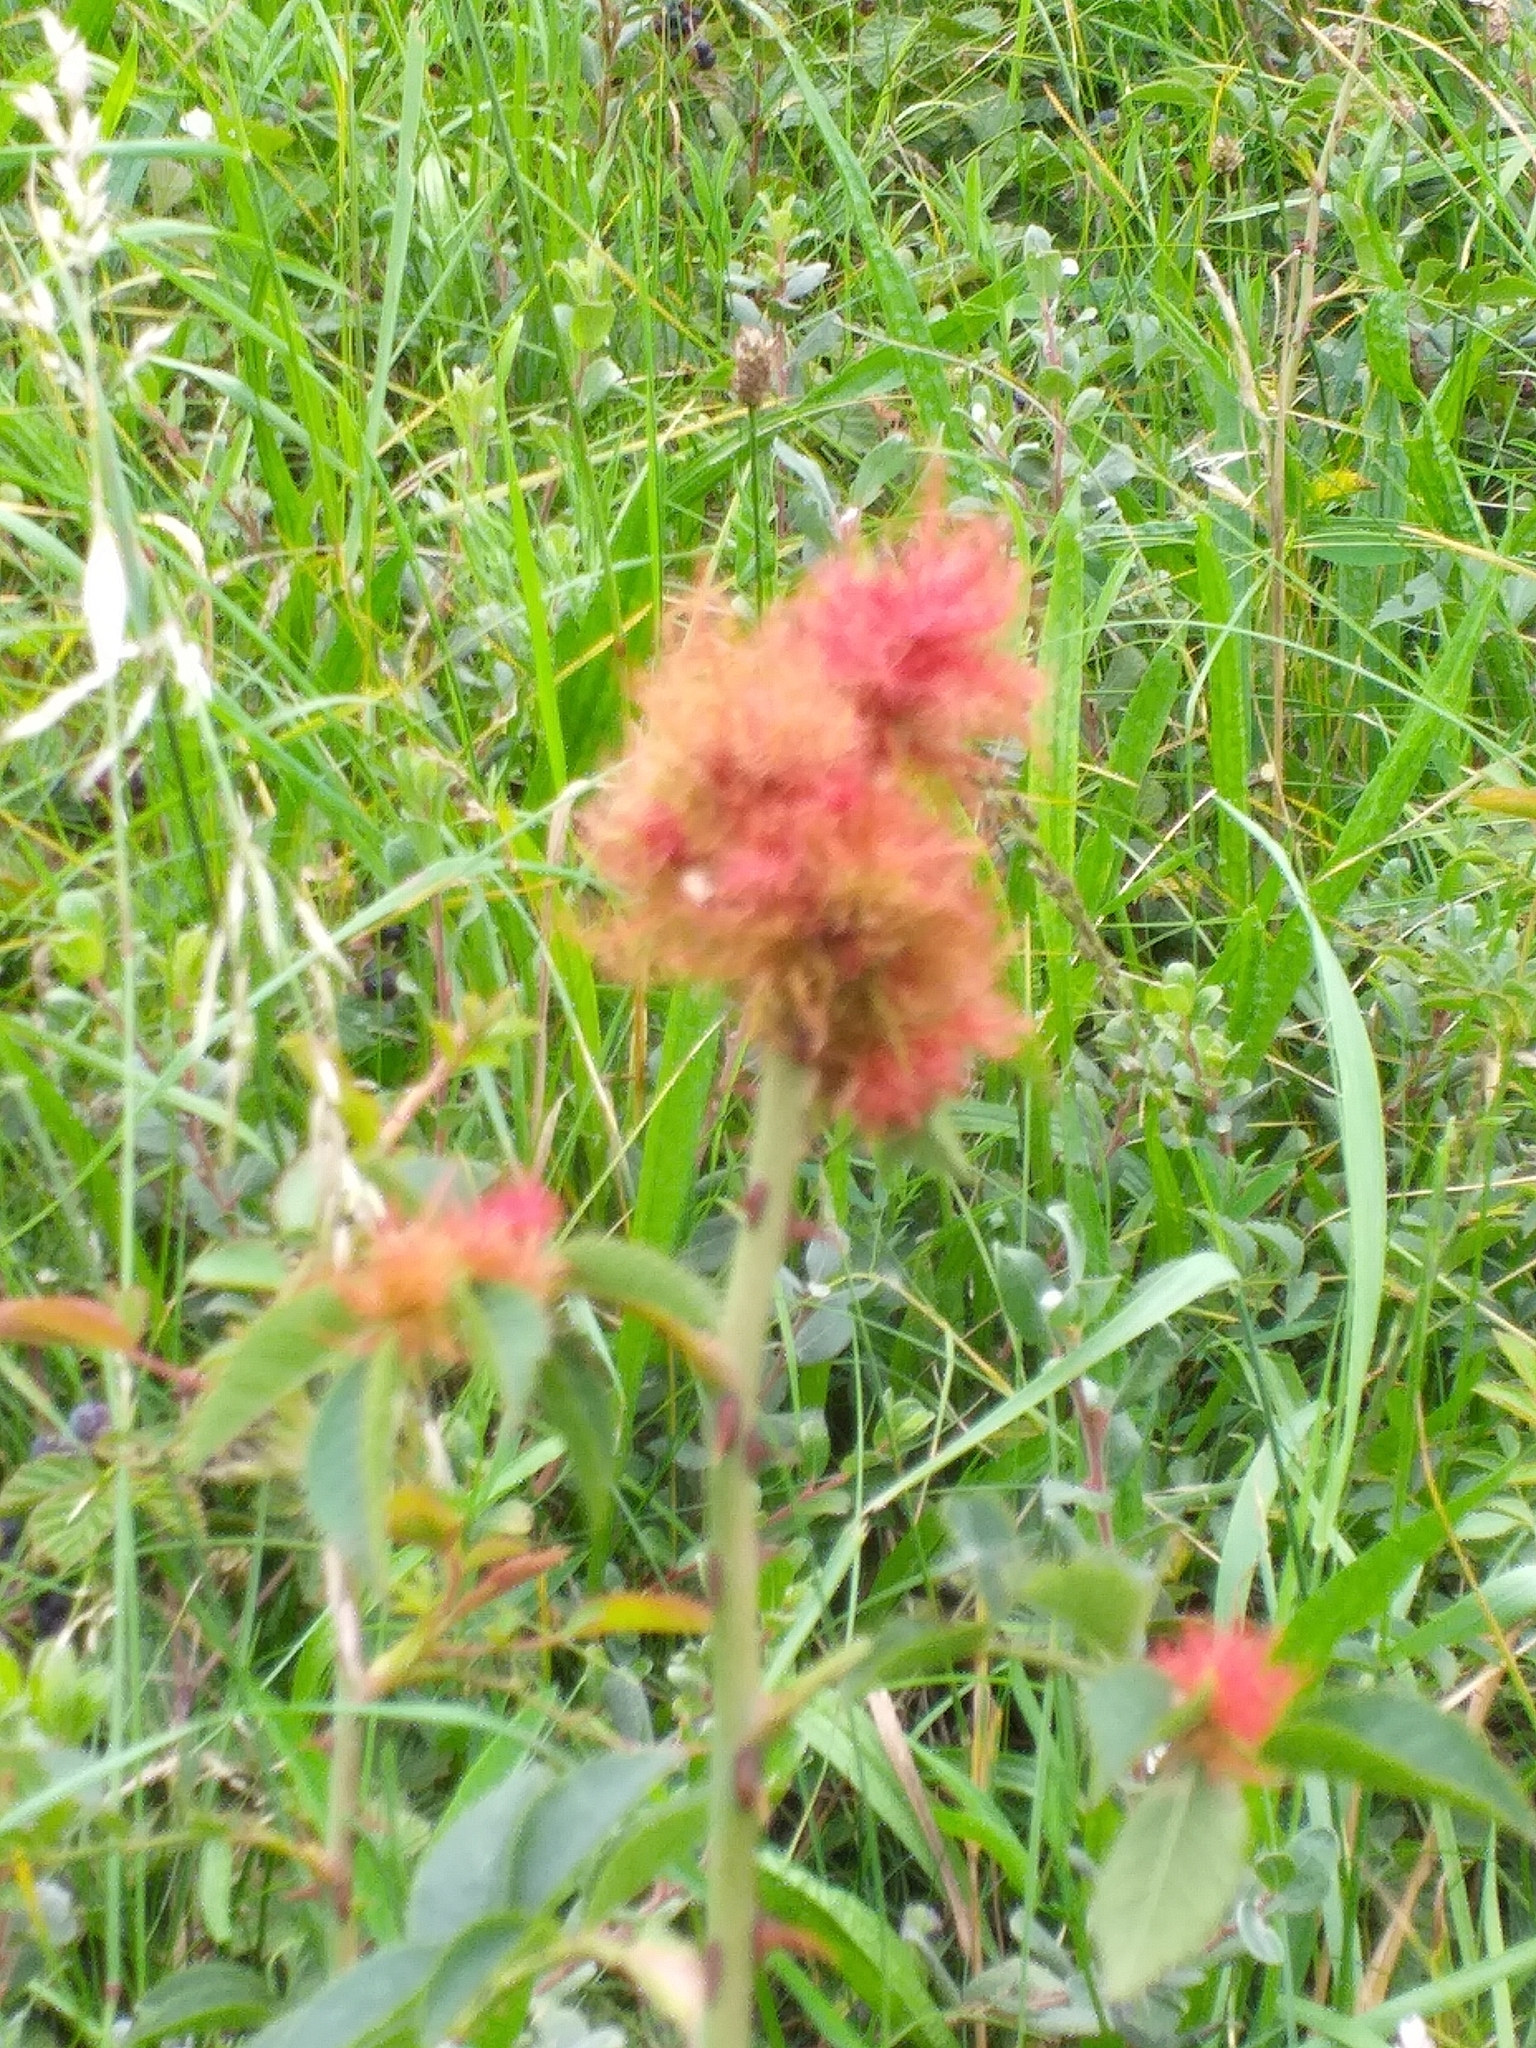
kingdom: Animalia
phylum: Arthropoda
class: Insecta
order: Hymenoptera
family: Cynipidae
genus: Diplolepis
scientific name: Diplolepis rosae
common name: Bedeguar gall
